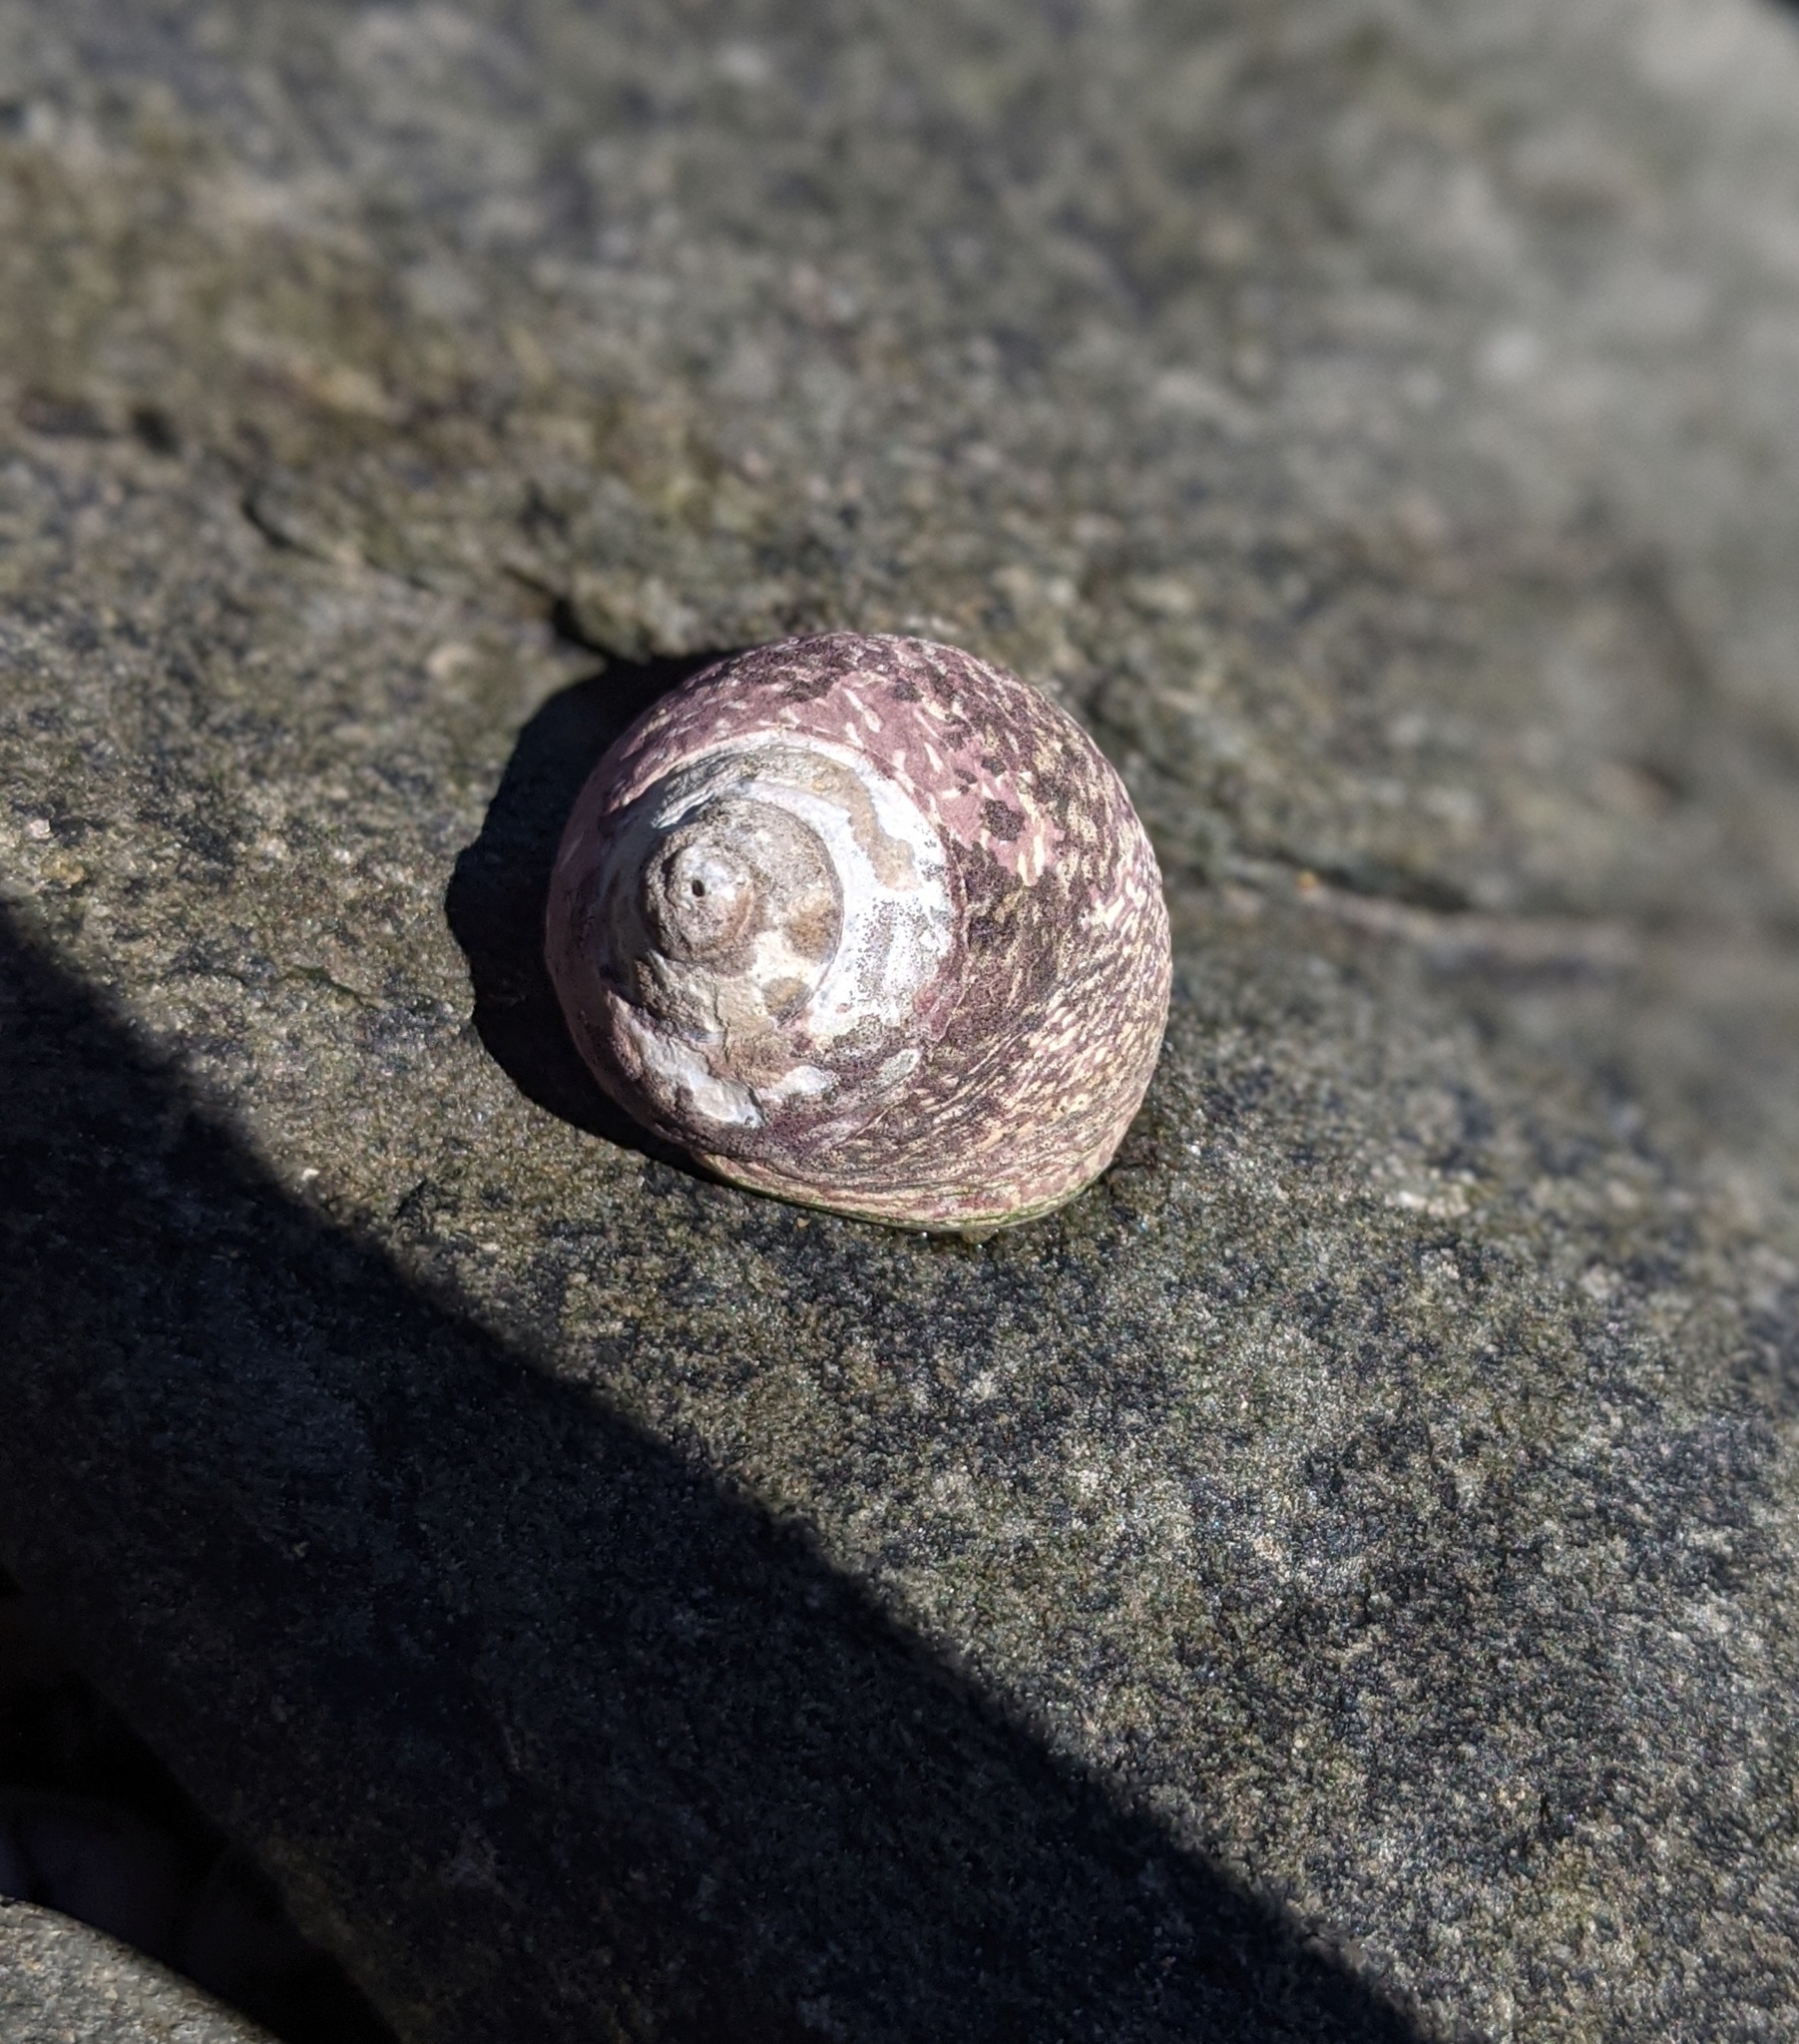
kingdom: Animalia
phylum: Mollusca
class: Gastropoda
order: Trochida
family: Trochidae
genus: Phorcus
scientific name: Phorcus lineatus
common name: Toothed top shell
